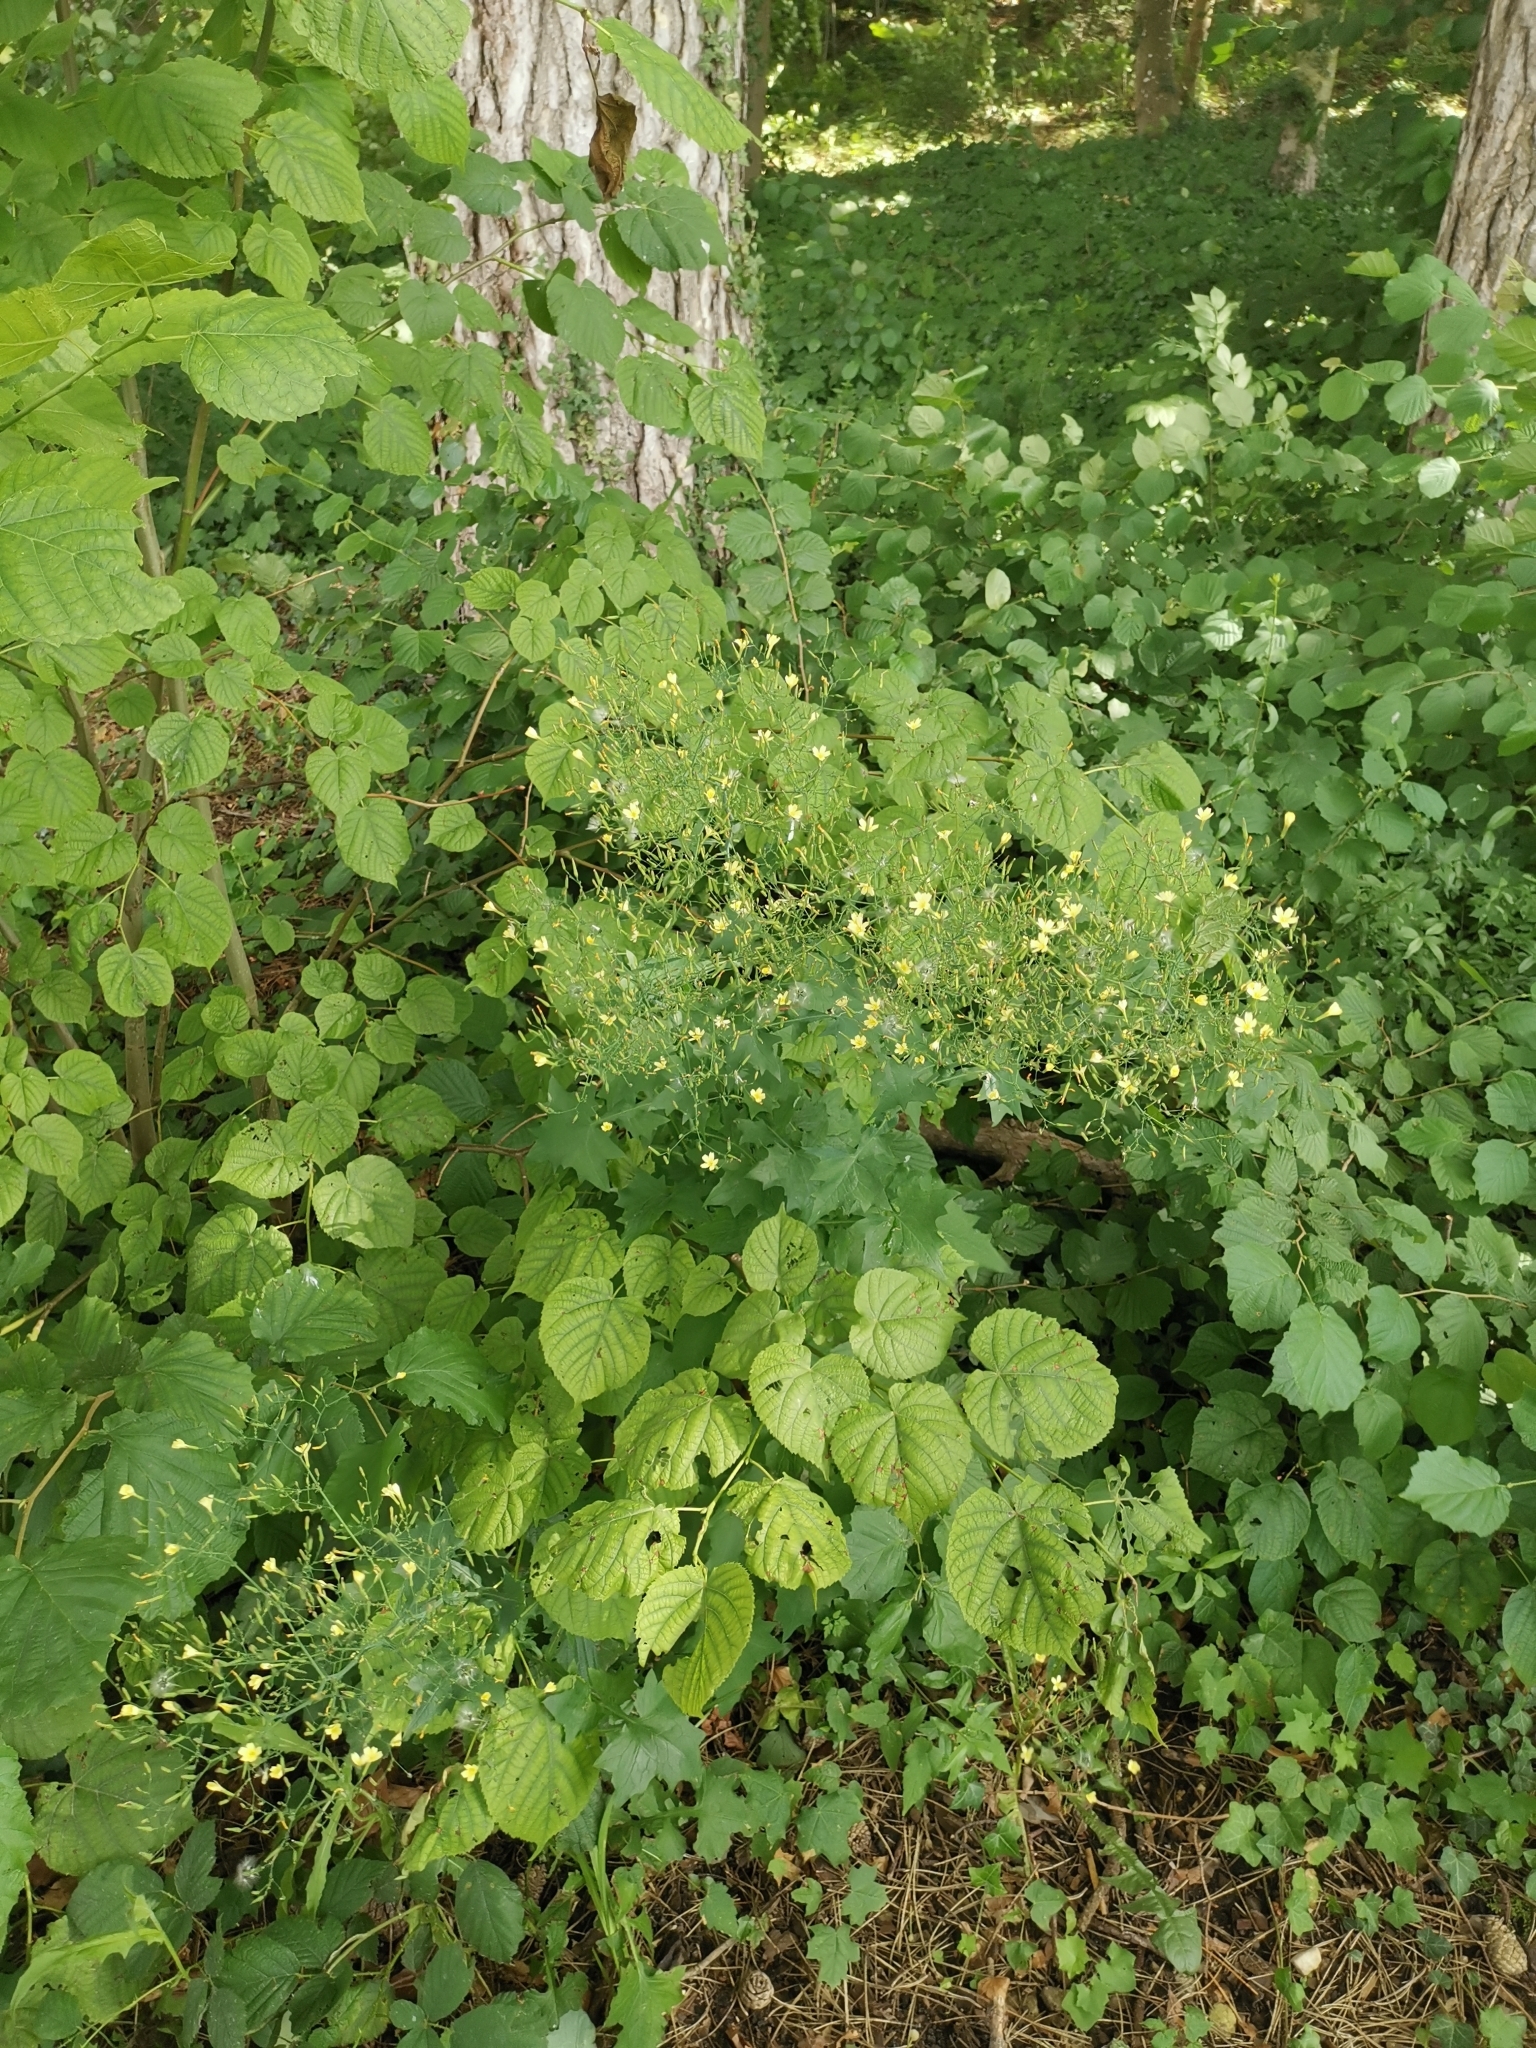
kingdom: Plantae
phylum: Tracheophyta
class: Magnoliopsida
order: Asterales
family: Asteraceae
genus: Mycelis
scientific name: Mycelis muralis
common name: Wall lettuce
